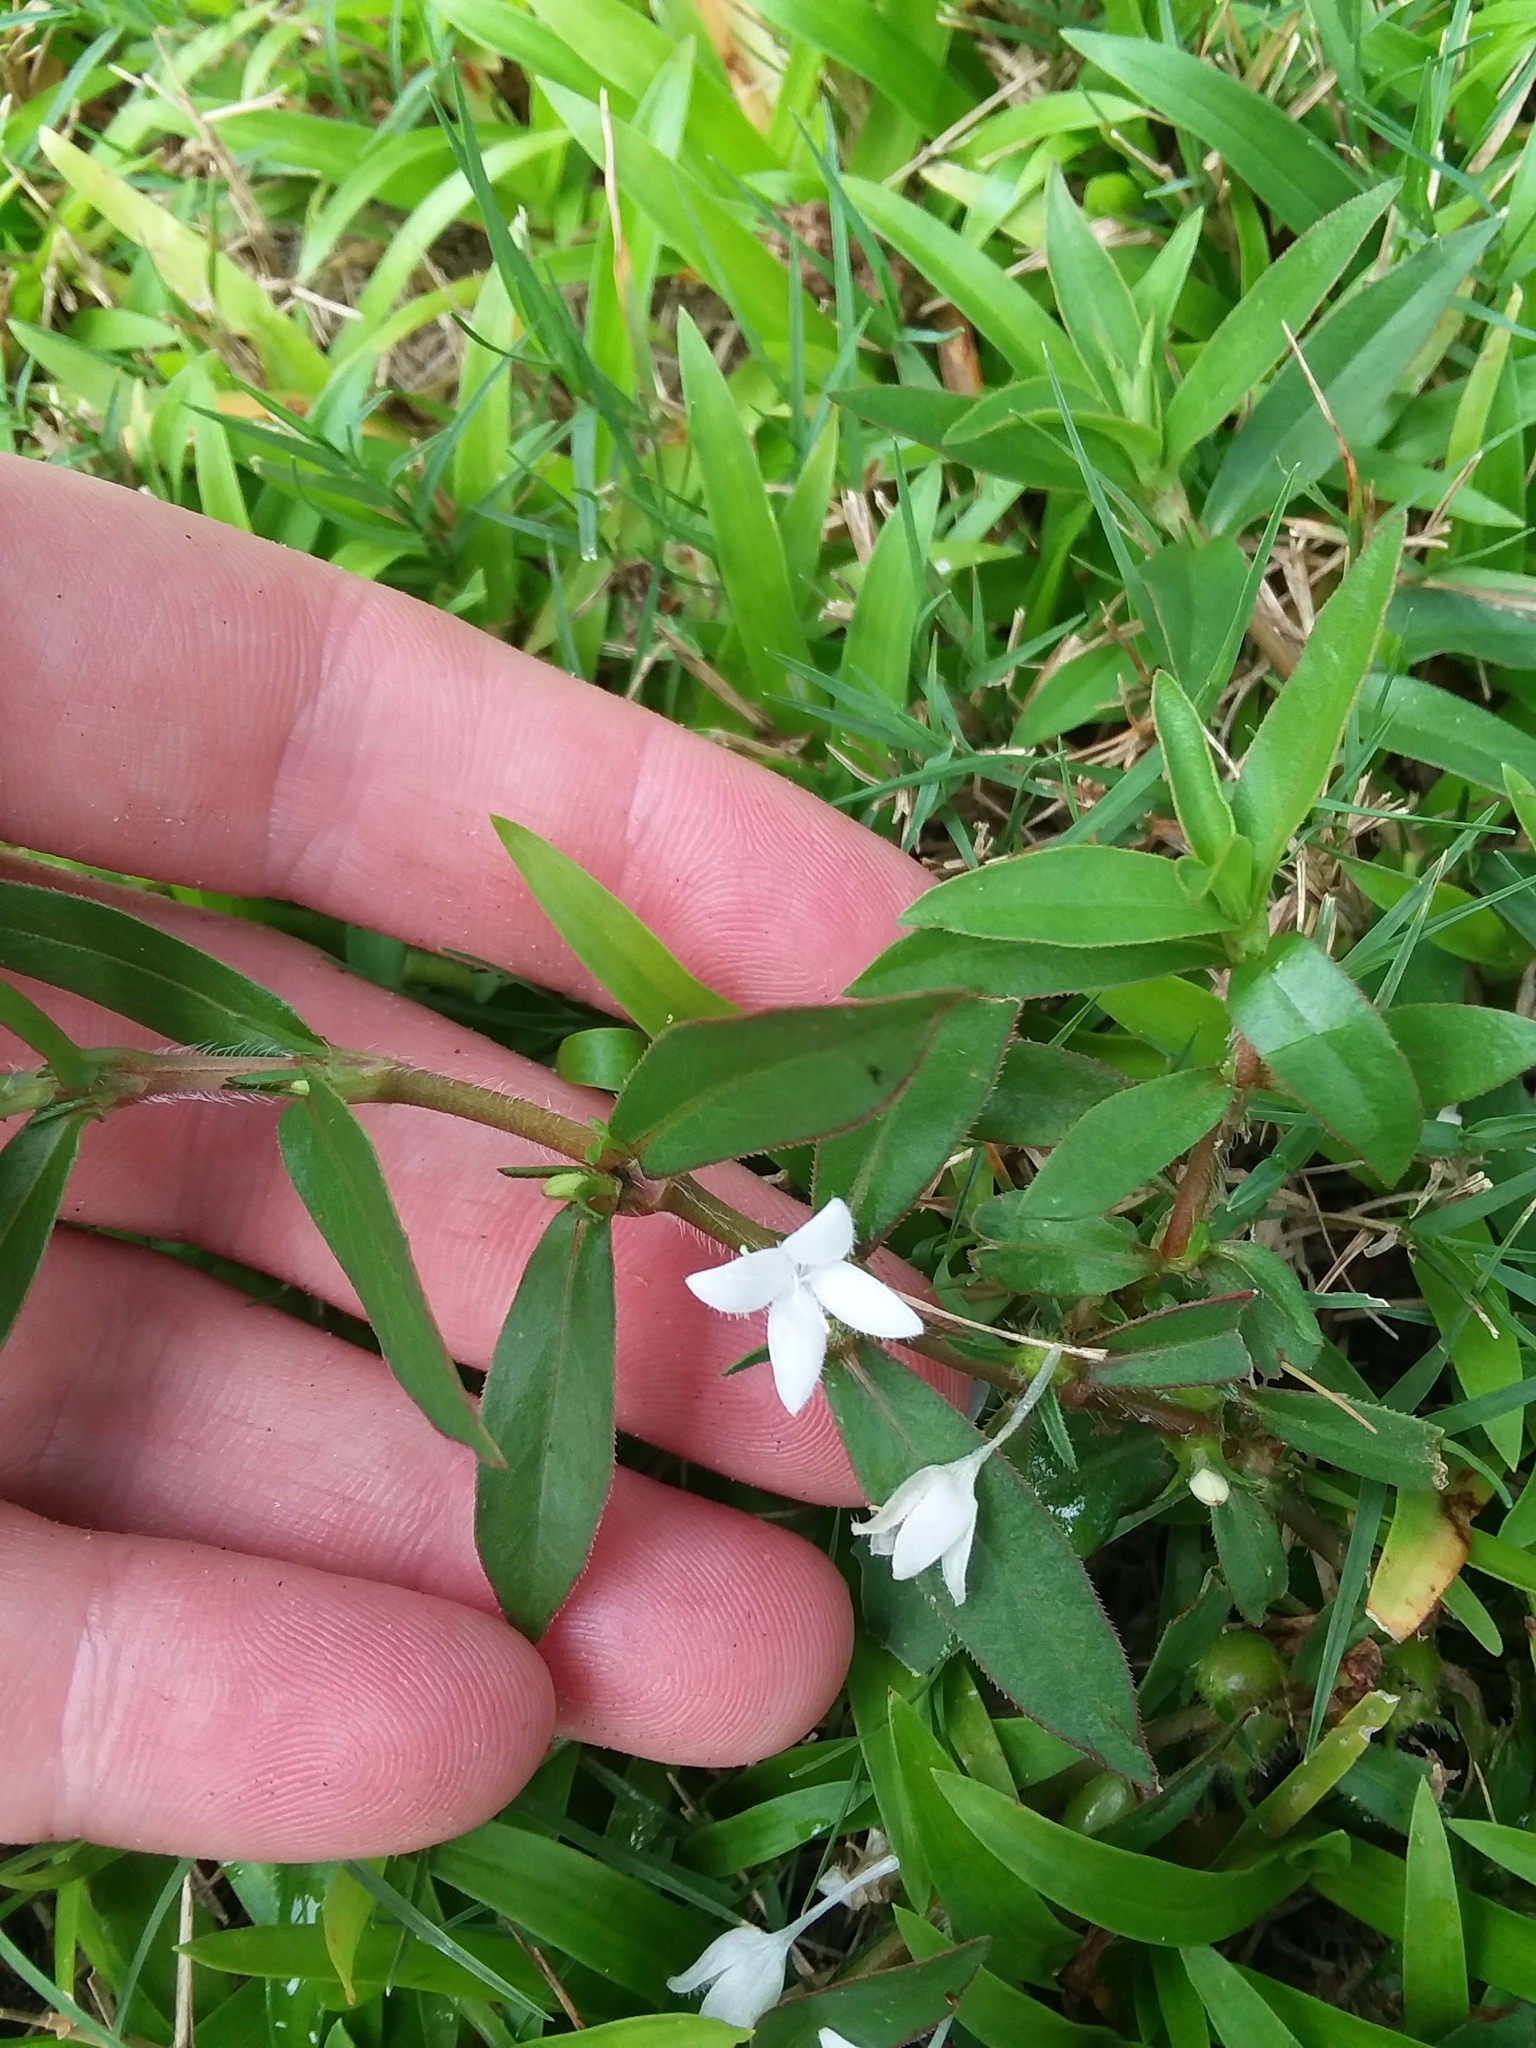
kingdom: Plantae
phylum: Tracheophyta
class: Magnoliopsida
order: Gentianales
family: Rubiaceae
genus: Diodia
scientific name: Diodia virginiana
